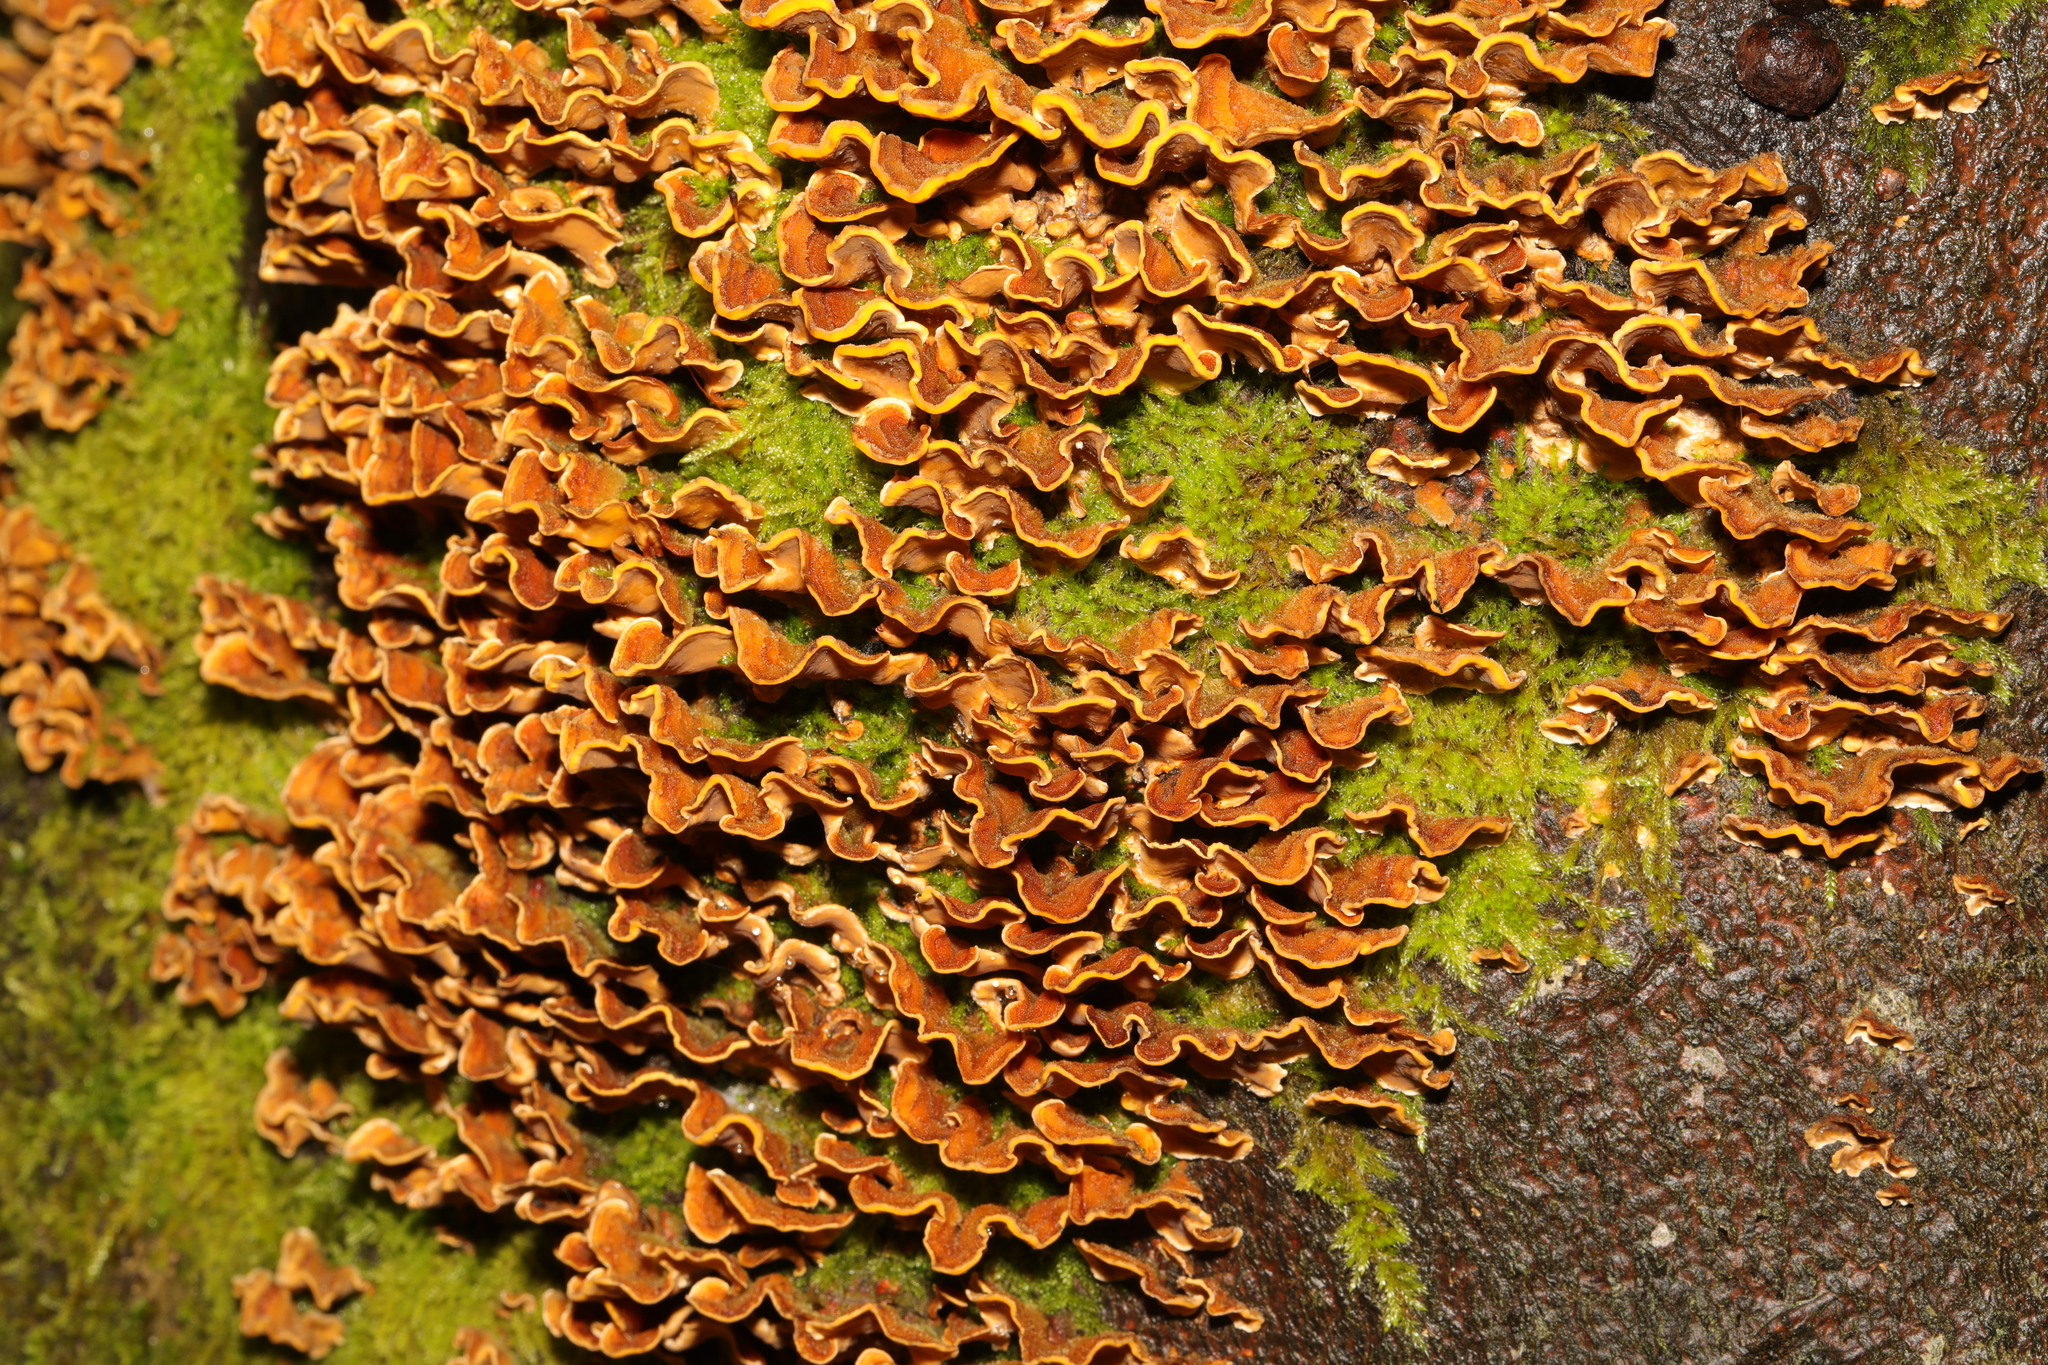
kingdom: Fungi
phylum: Basidiomycota
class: Agaricomycetes
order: Russulales
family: Stereaceae
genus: Stereum
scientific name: Stereum hirsutum
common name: Hairy curtain crust
